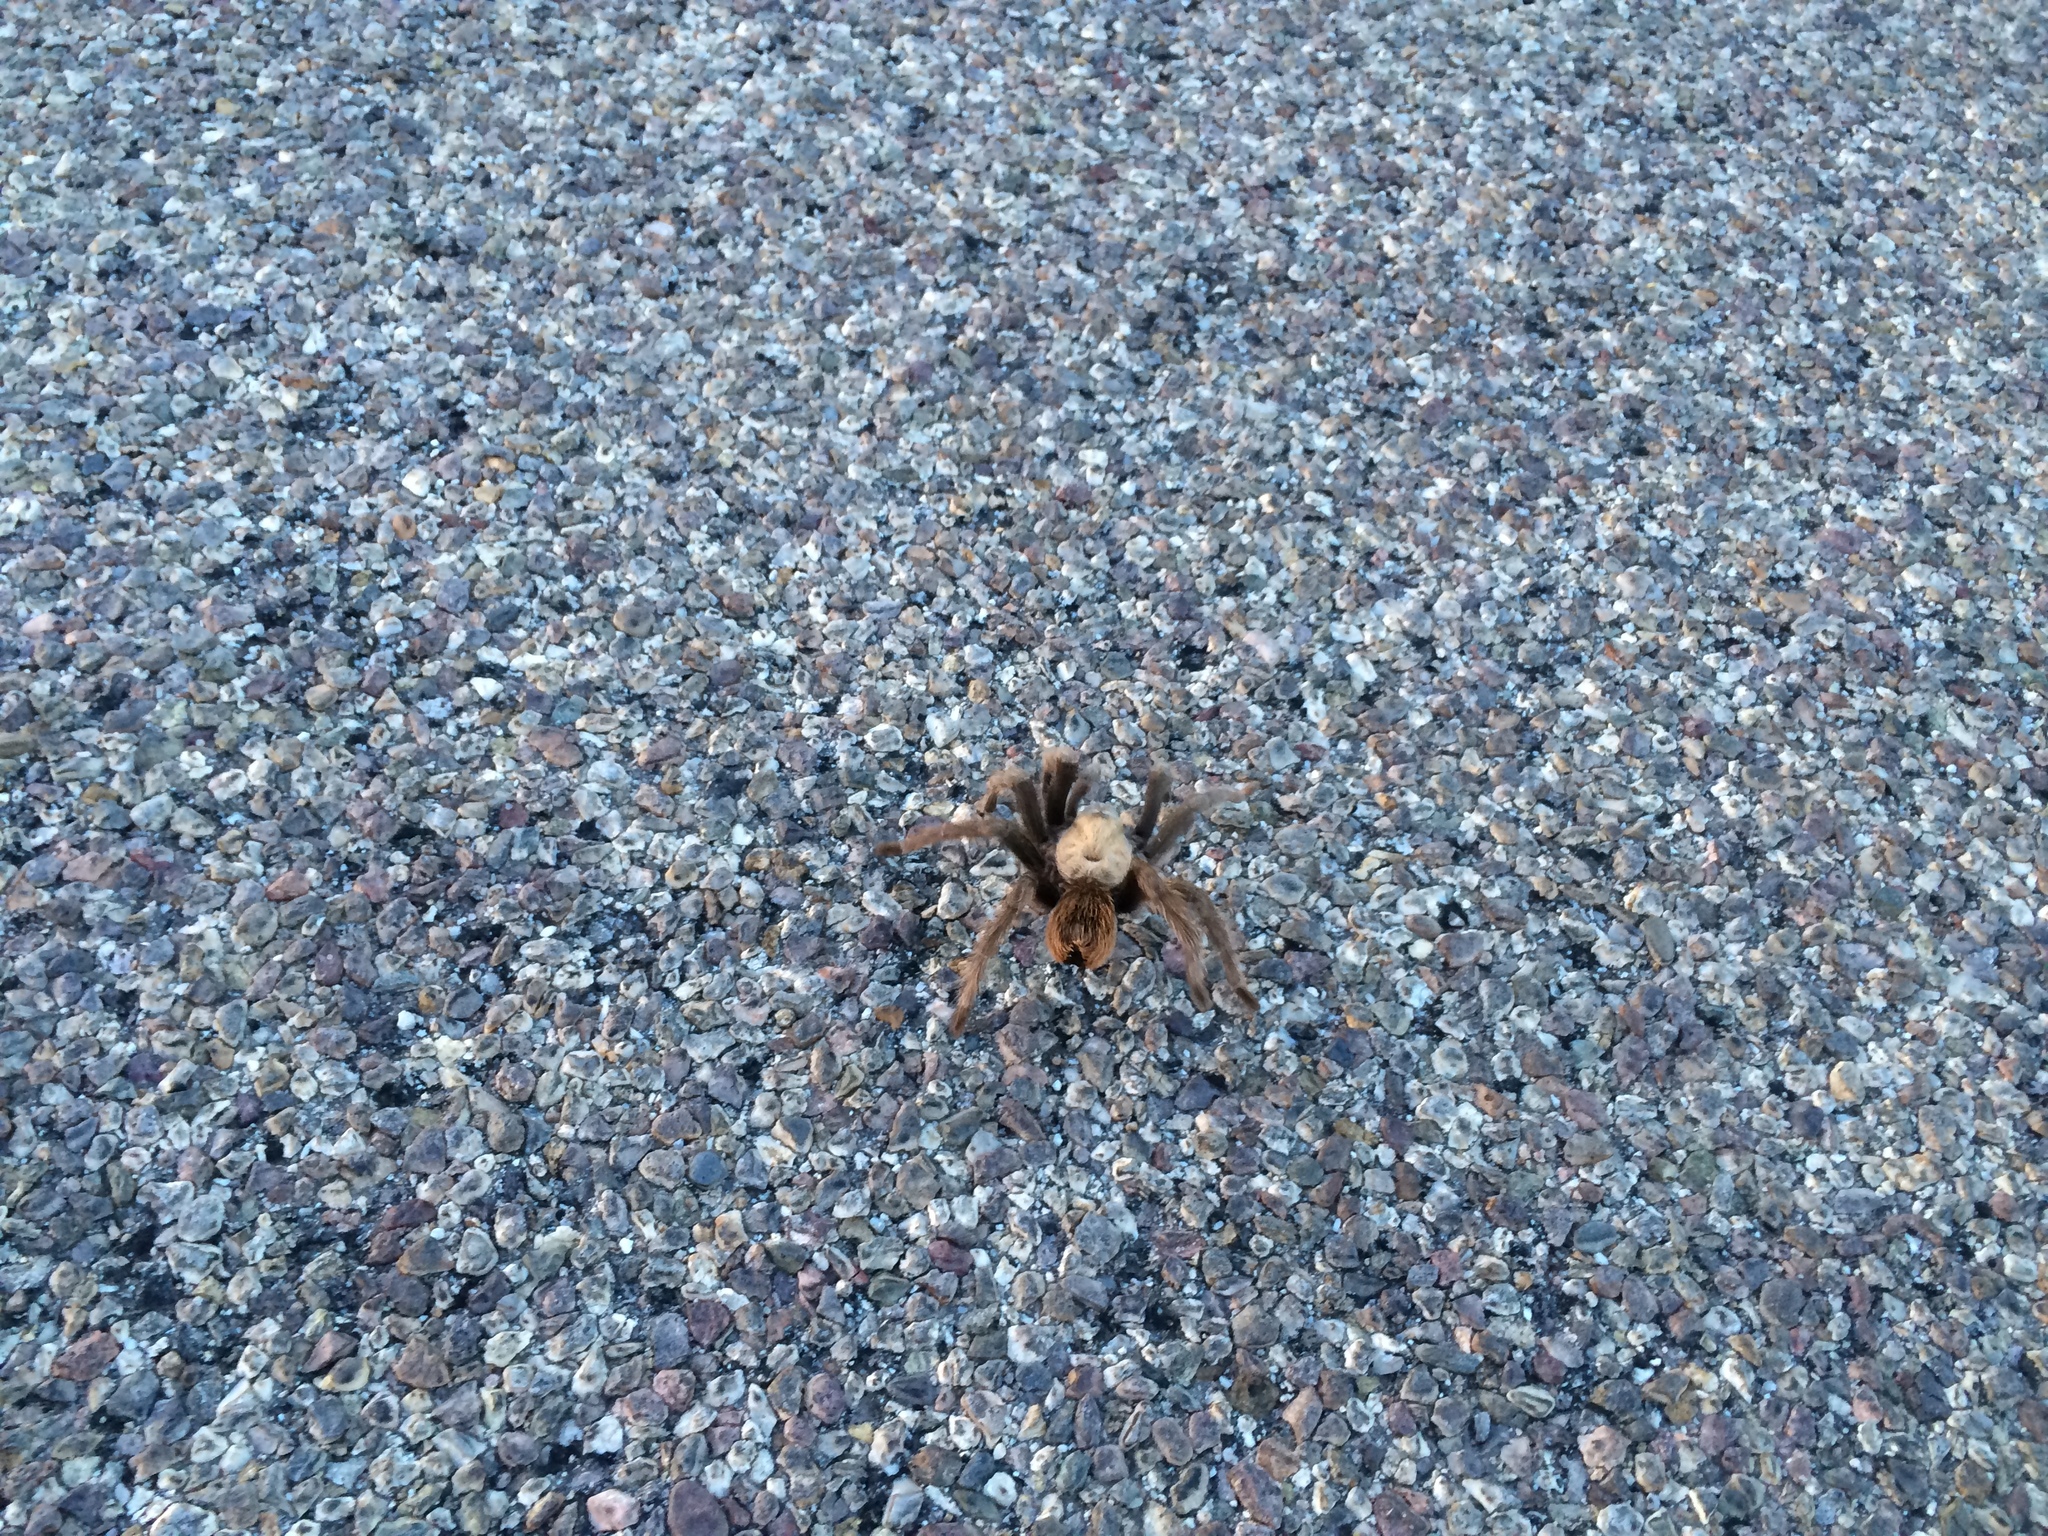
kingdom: Animalia
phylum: Arthropoda
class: Arachnida
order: Araneae
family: Theraphosidae
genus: Aphonopelma
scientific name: Aphonopelma chalcodes
